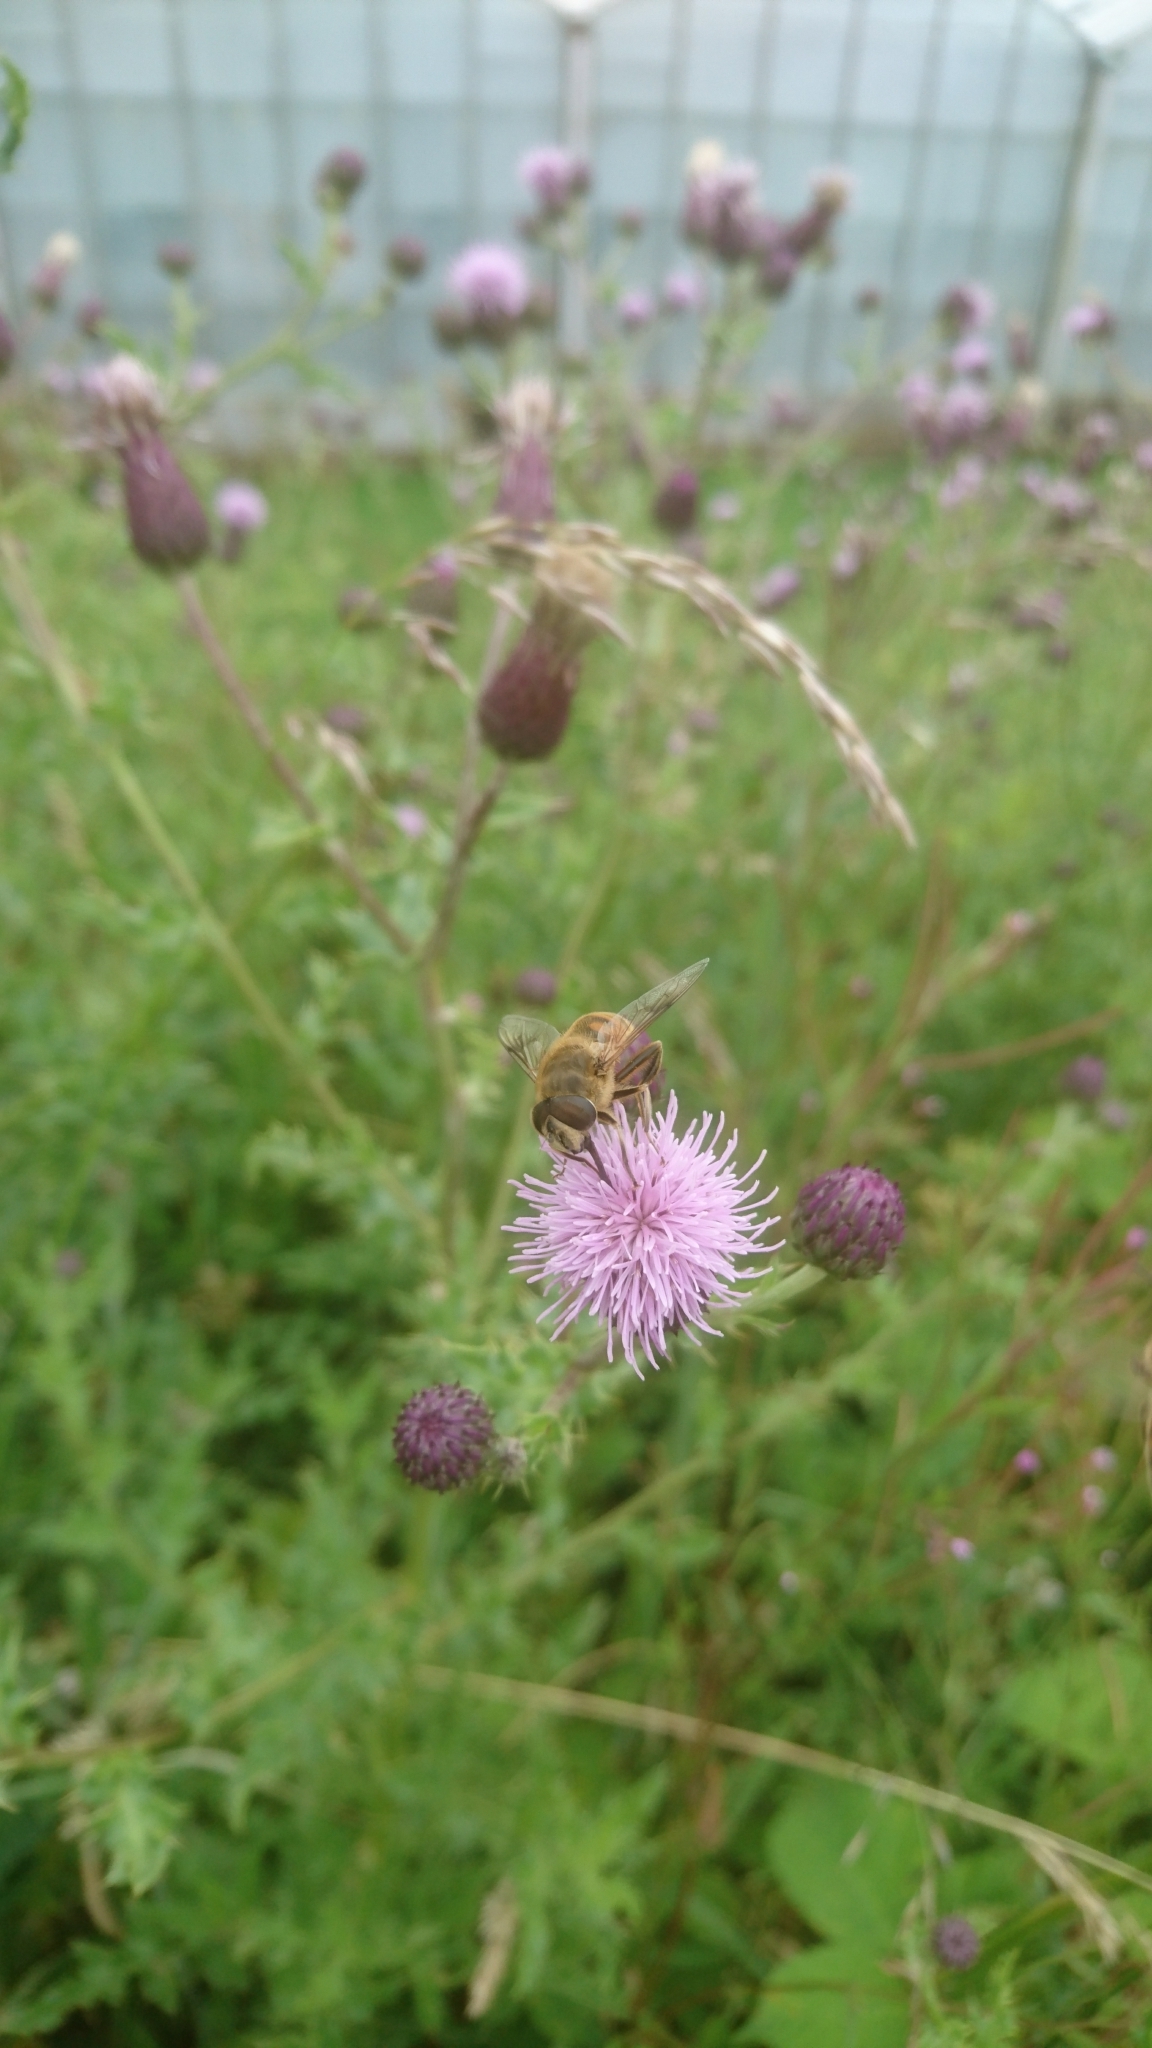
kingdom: Animalia
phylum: Arthropoda
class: Insecta
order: Diptera
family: Syrphidae
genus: Eristalis
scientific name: Eristalis tenax
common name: Drone fly
